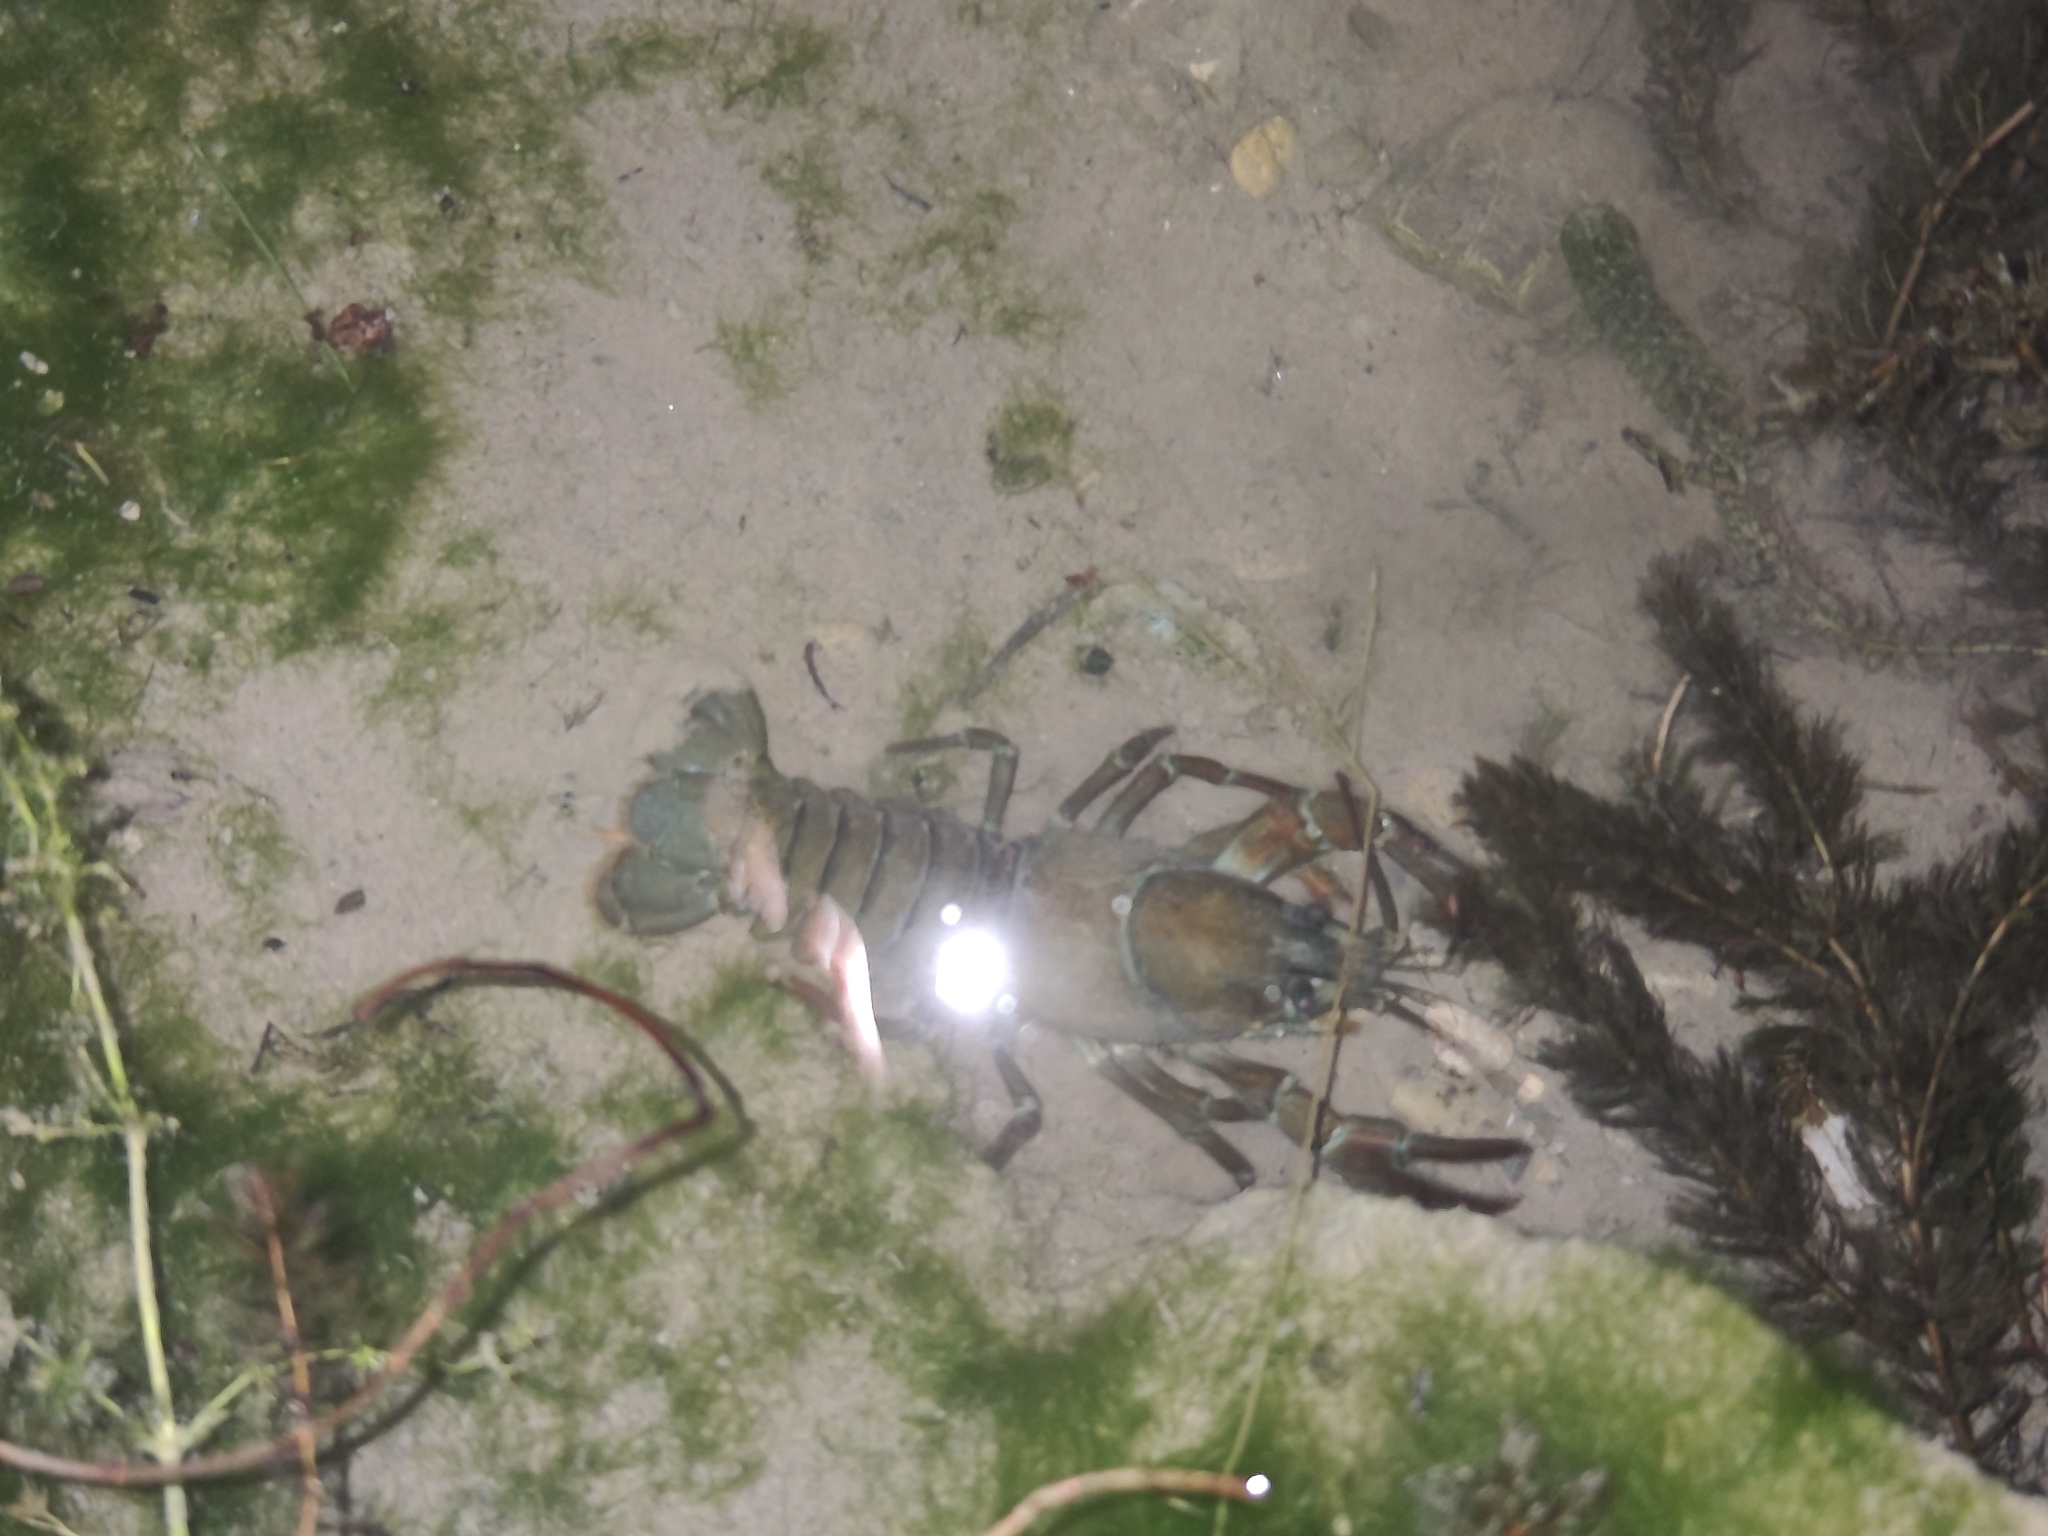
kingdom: Animalia
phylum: Arthropoda
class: Malacostraca
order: Decapoda
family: Astacidae
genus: Pacifastacus
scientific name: Pacifastacus leniusculus
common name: Signal crayfish
